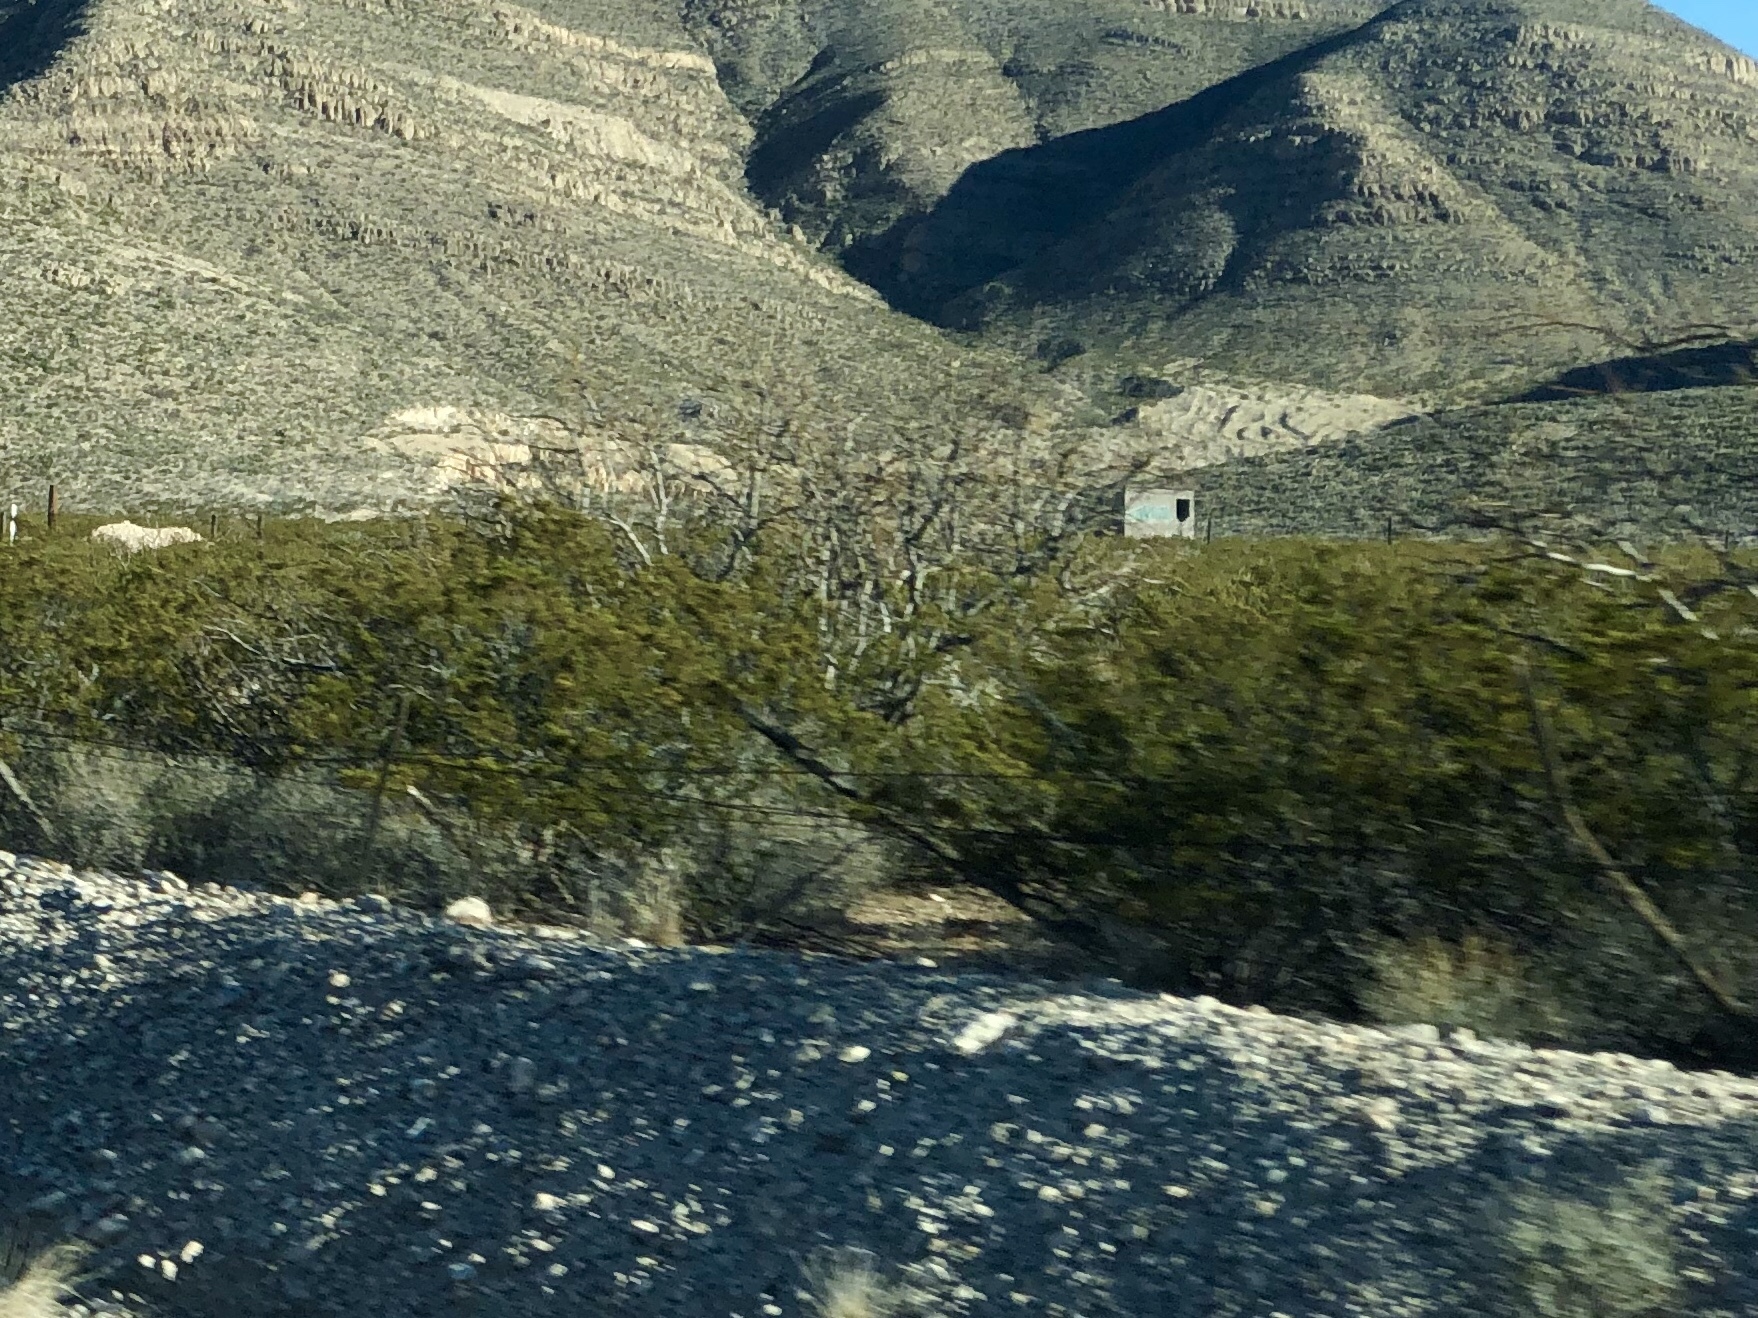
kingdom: Plantae
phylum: Tracheophyta
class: Magnoliopsida
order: Zygophyllales
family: Zygophyllaceae
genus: Larrea
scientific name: Larrea tridentata
